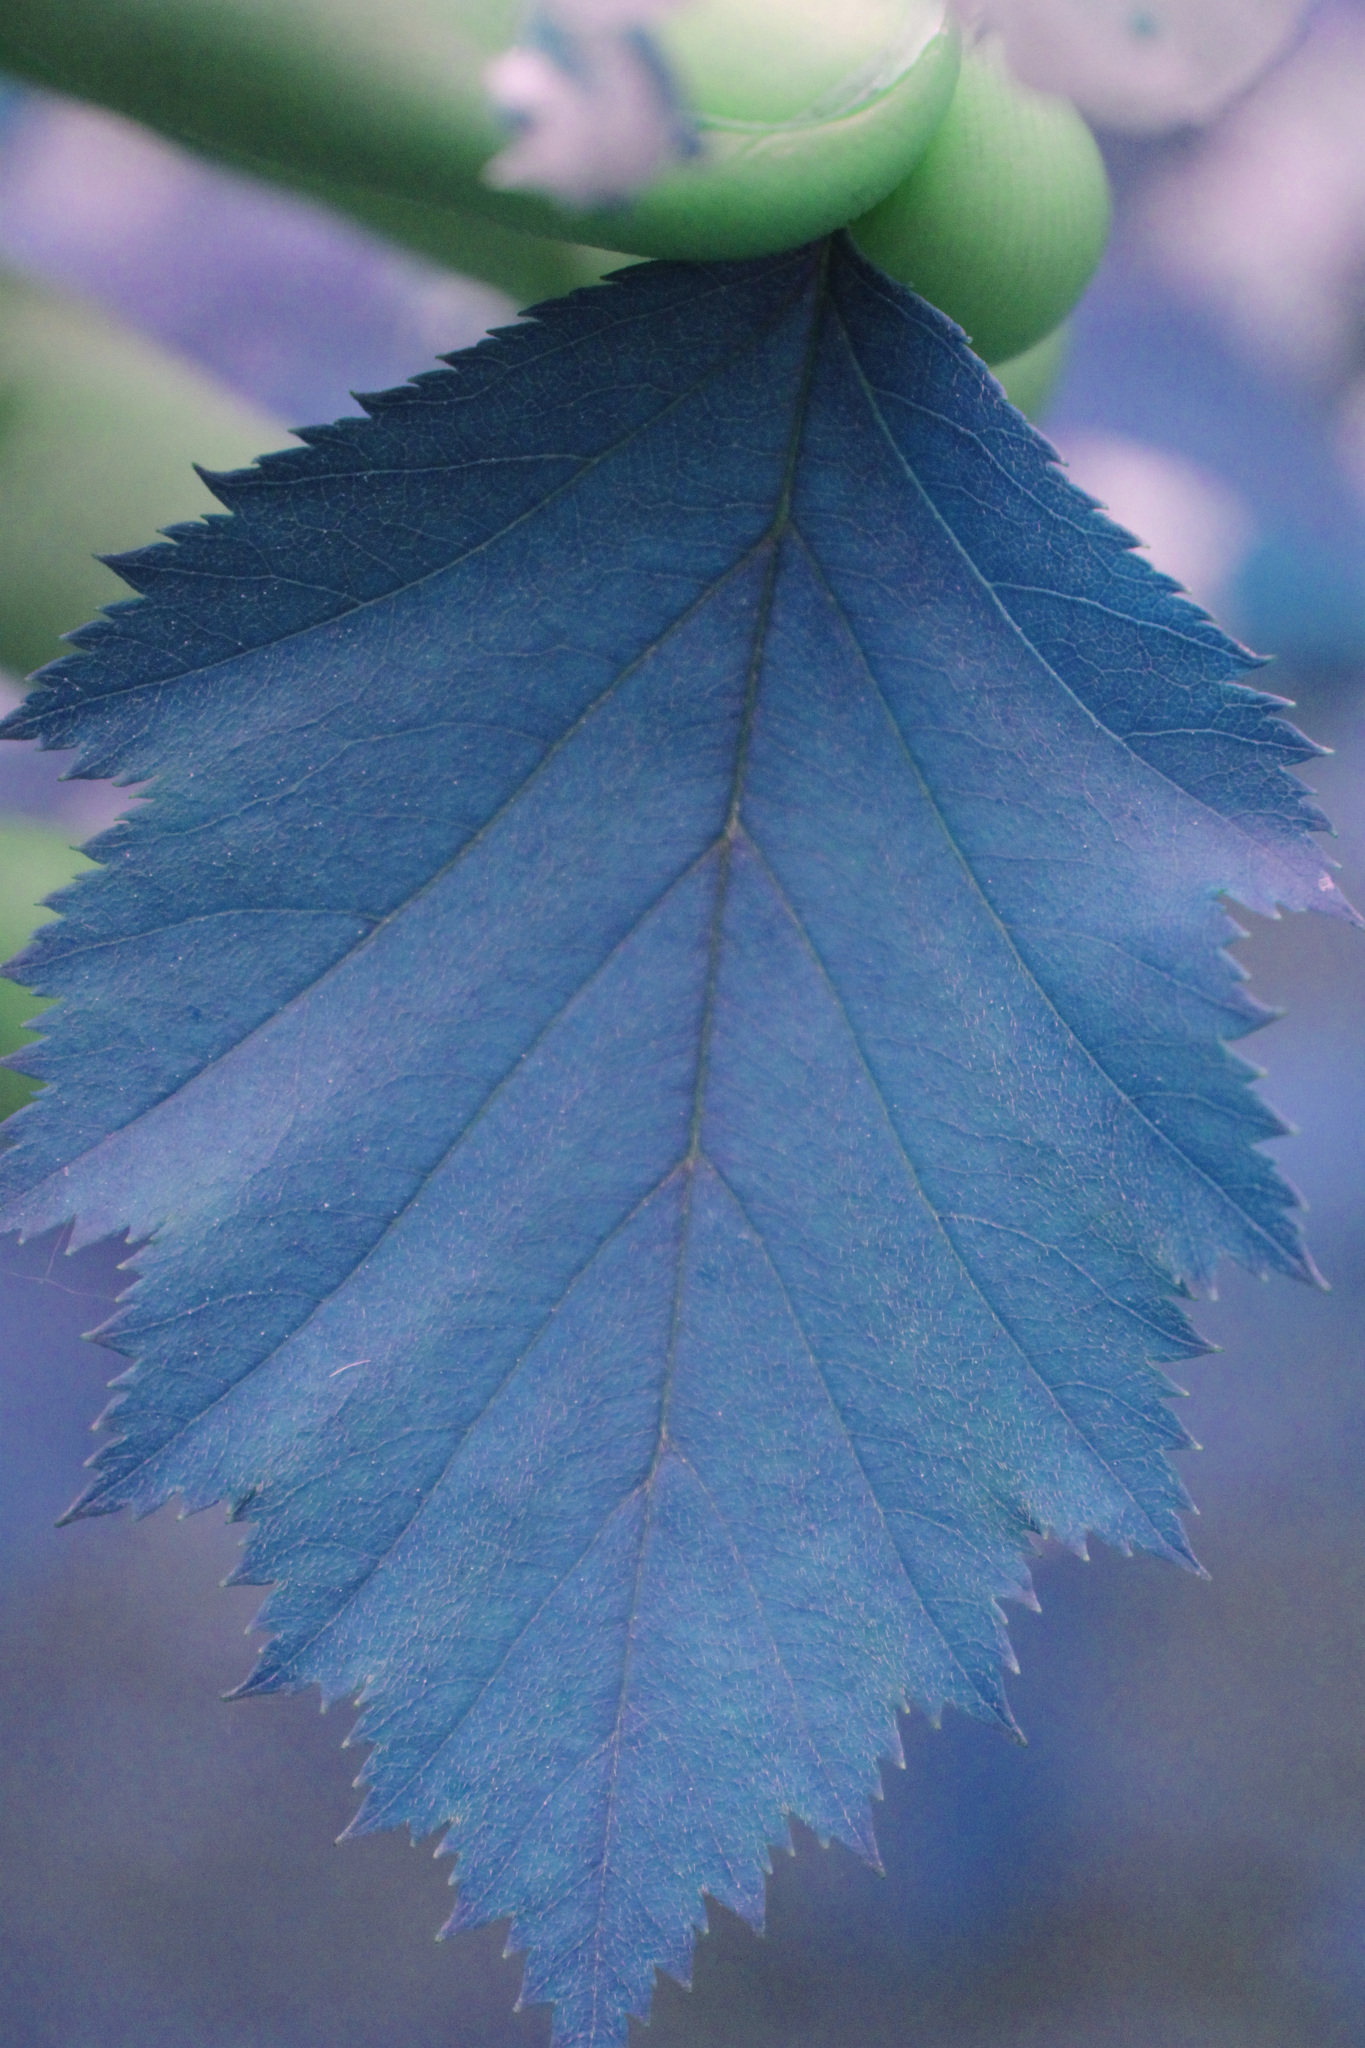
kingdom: Plantae
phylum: Tracheophyta
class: Magnoliopsida
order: Rosales
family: Rosaceae
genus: Crataegus
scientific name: Crataegus holmesiana
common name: Holmes' hawthorn
